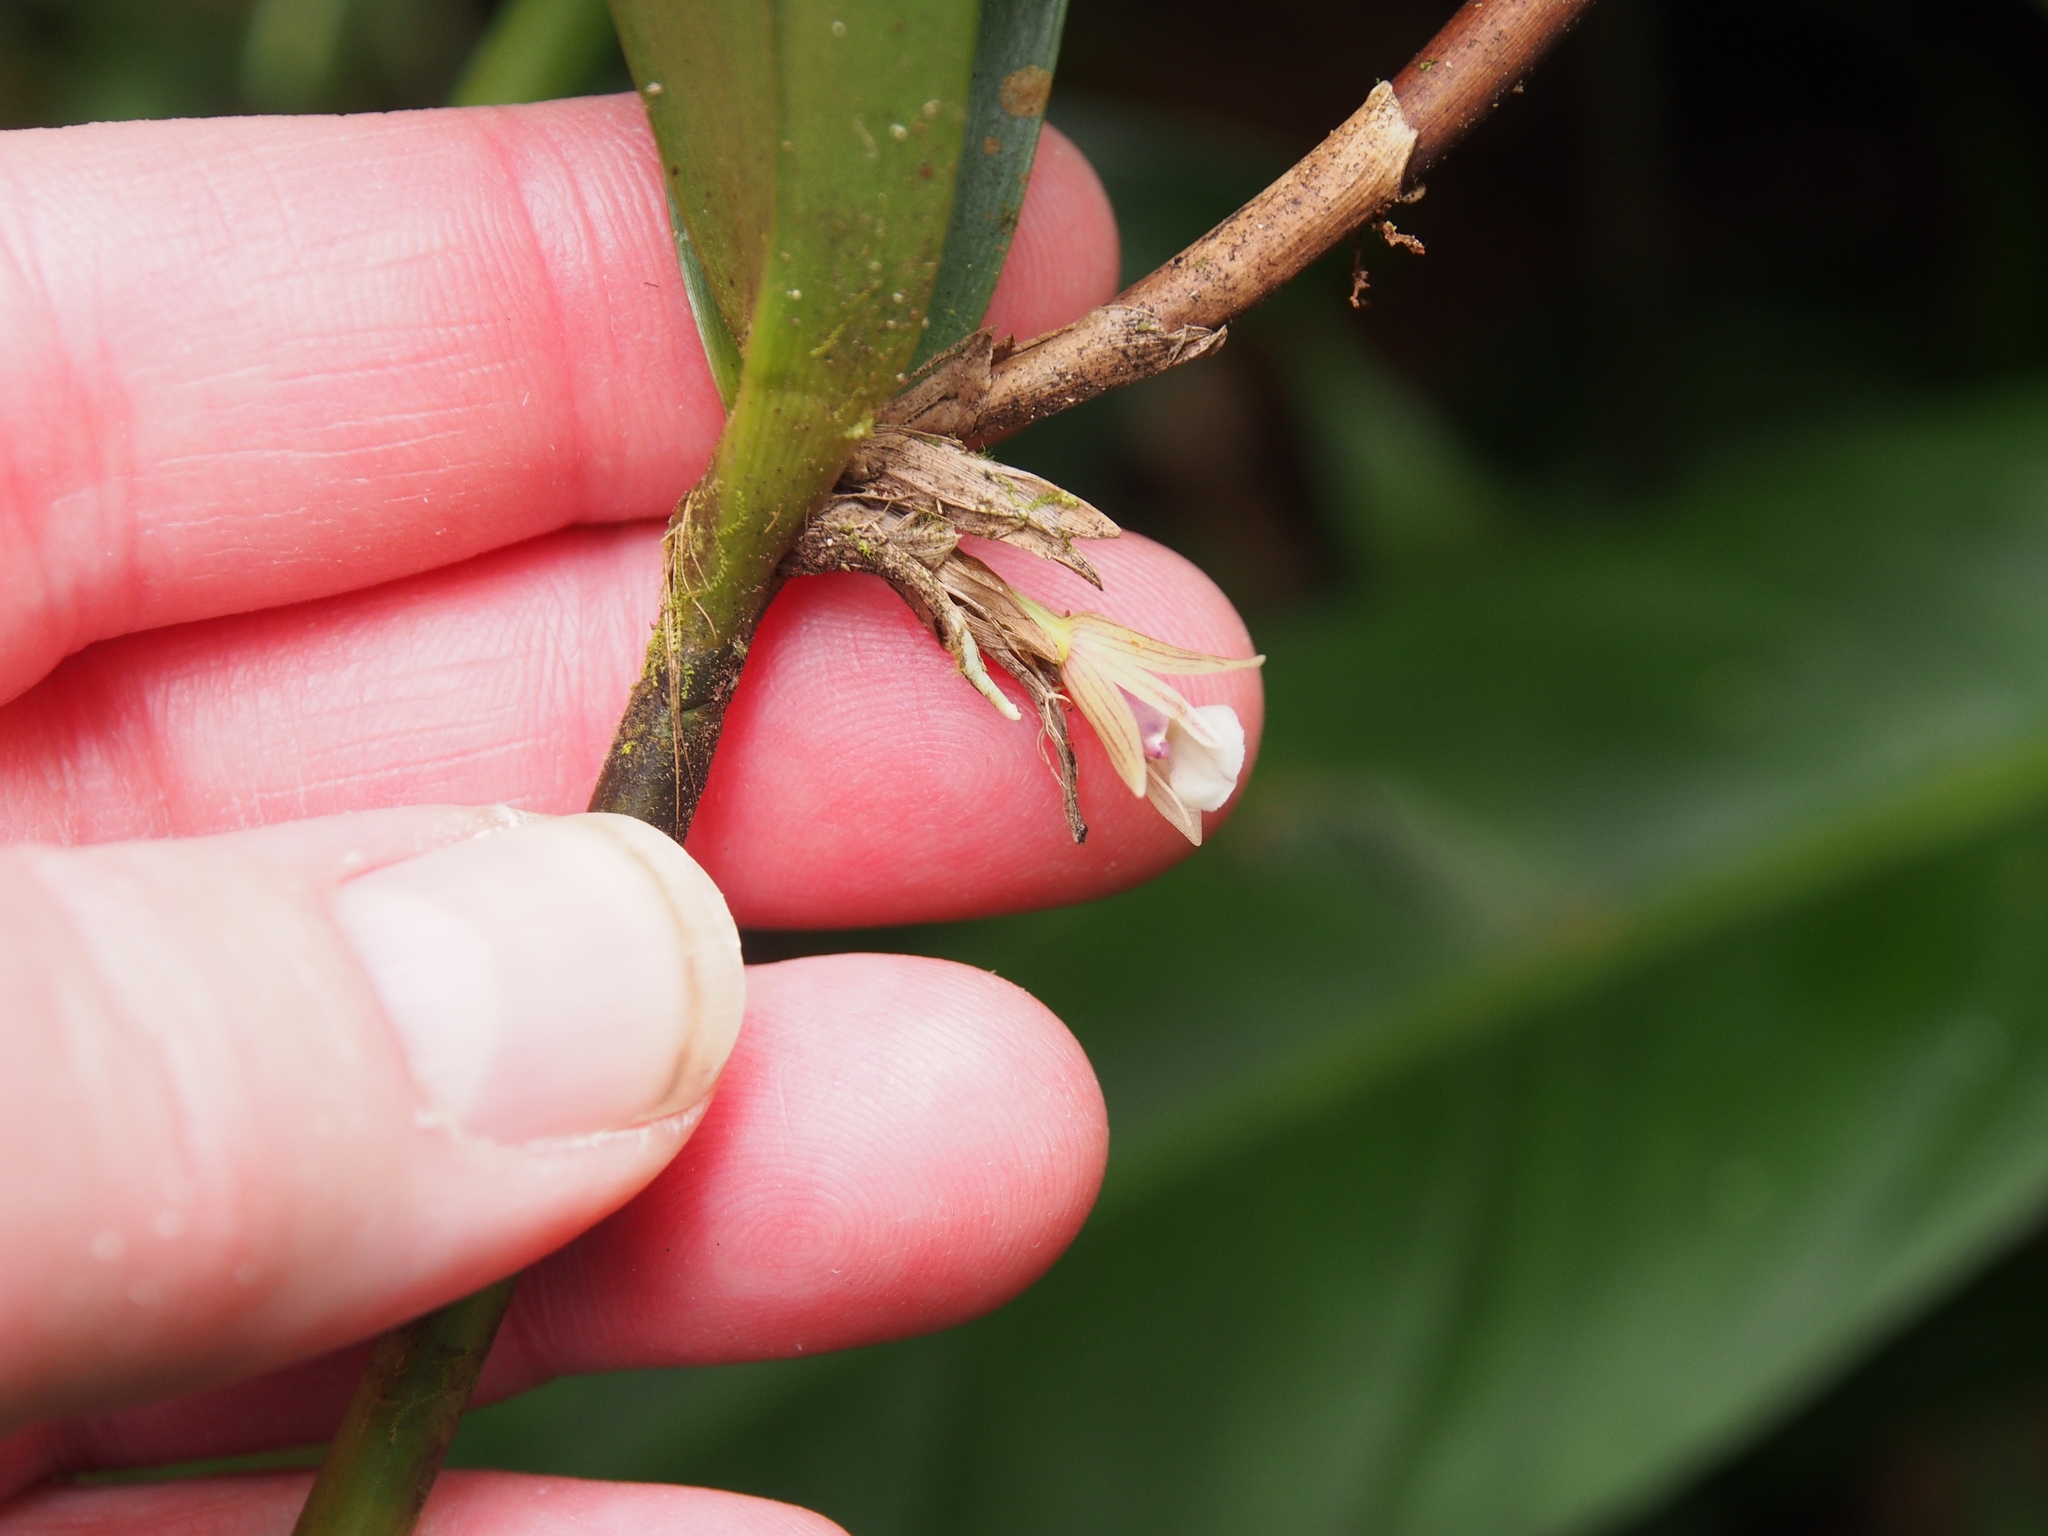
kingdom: Plantae
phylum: Tracheophyta
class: Liliopsida
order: Asparagales
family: Orchidaceae
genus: Scaphyglottis
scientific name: Scaphyglottis bilineata
